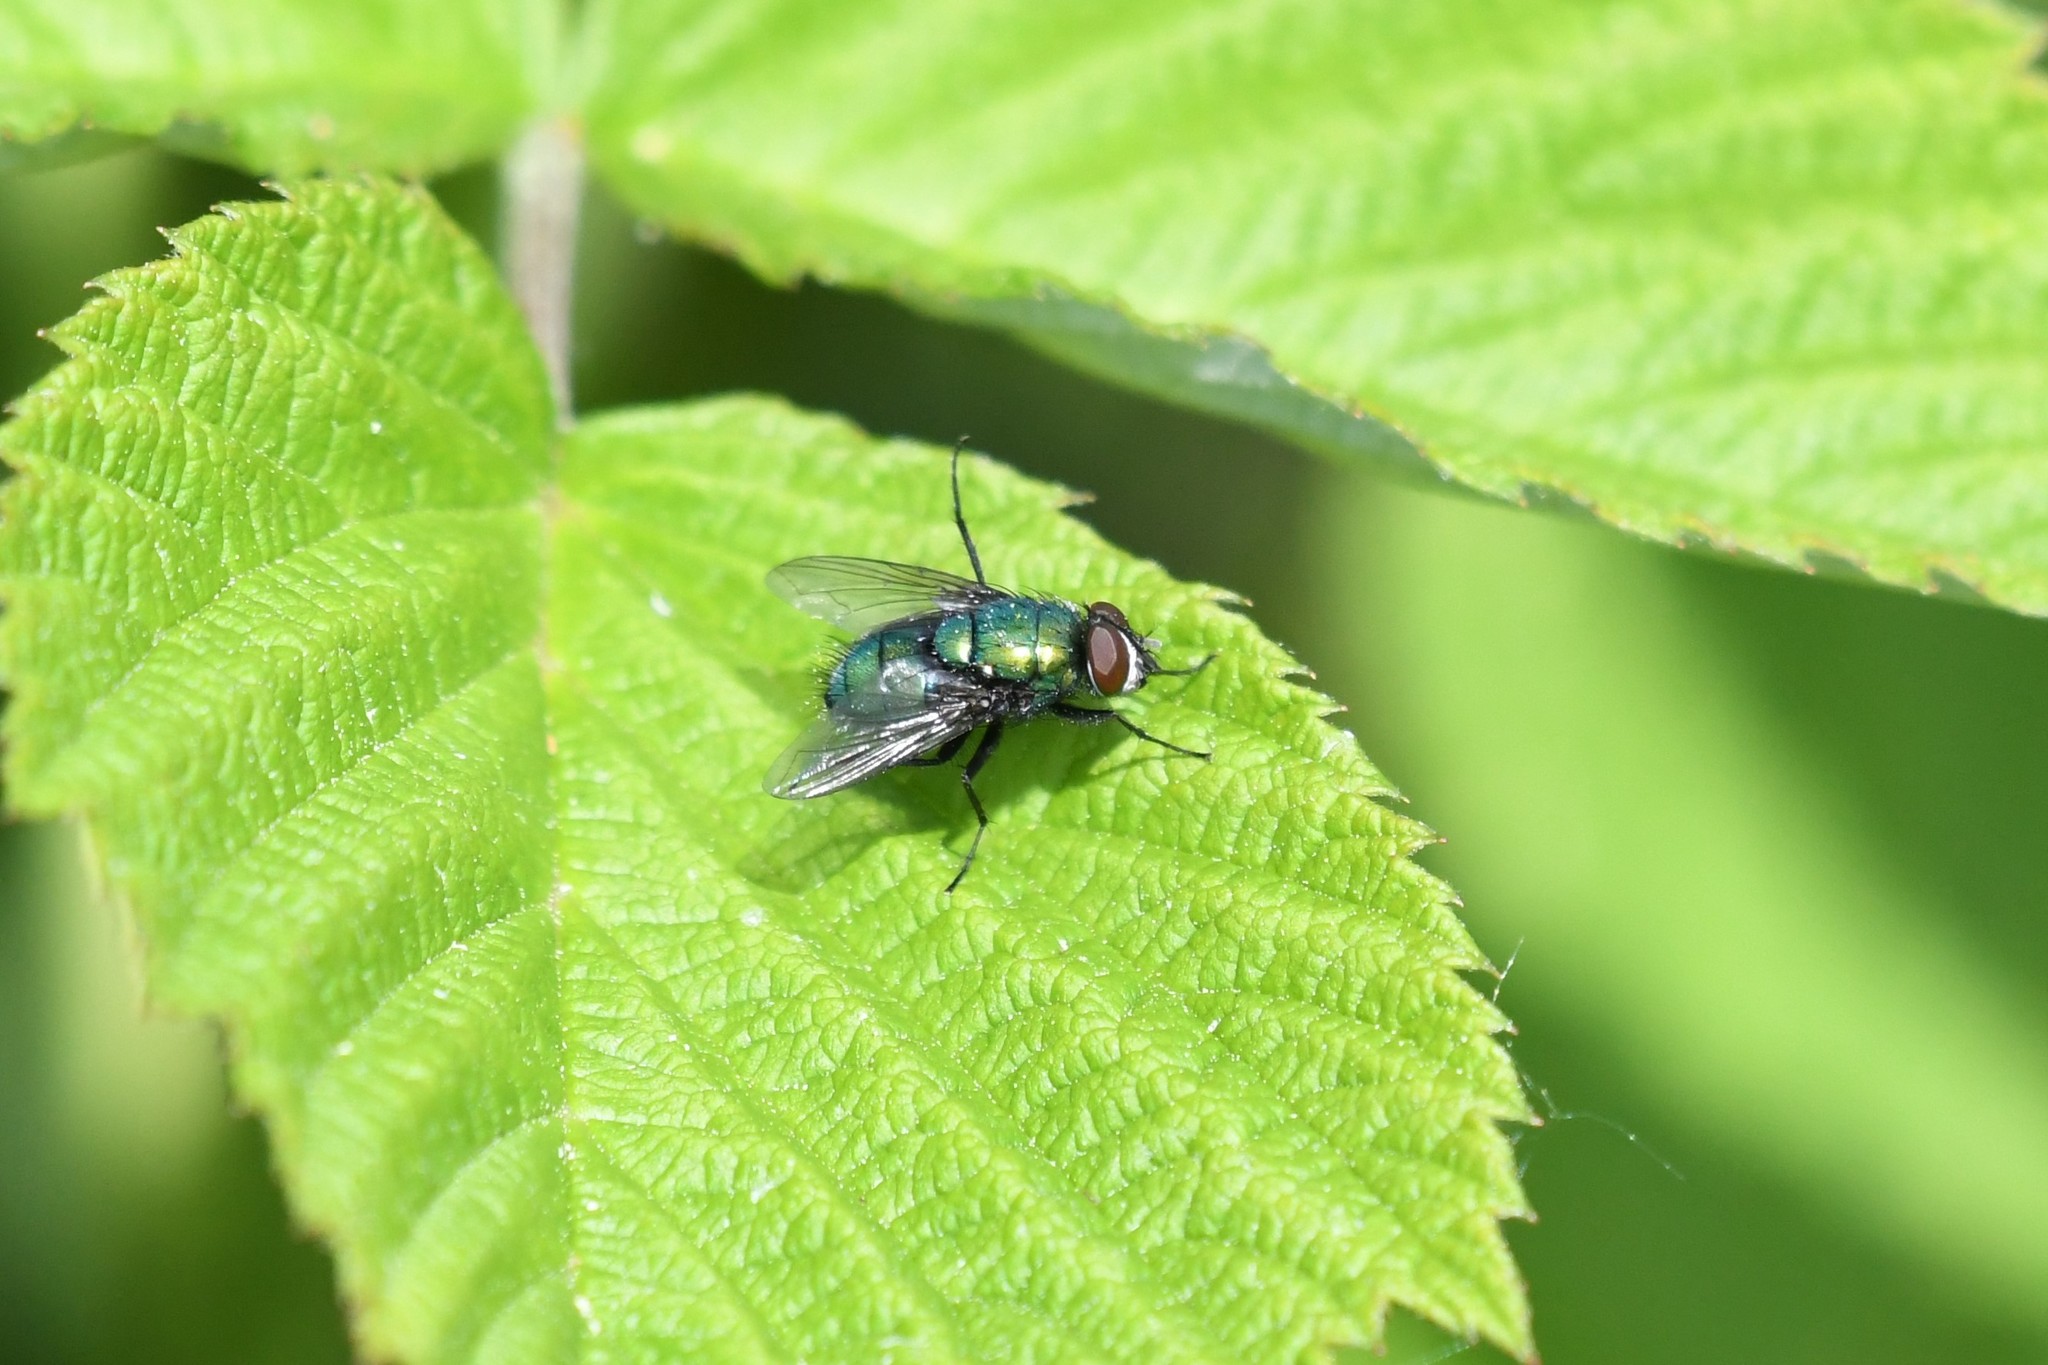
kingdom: Animalia
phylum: Arthropoda
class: Insecta
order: Diptera
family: Calliphoridae
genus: Lucilia
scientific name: Lucilia silvarum
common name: Marsh greenbottle
